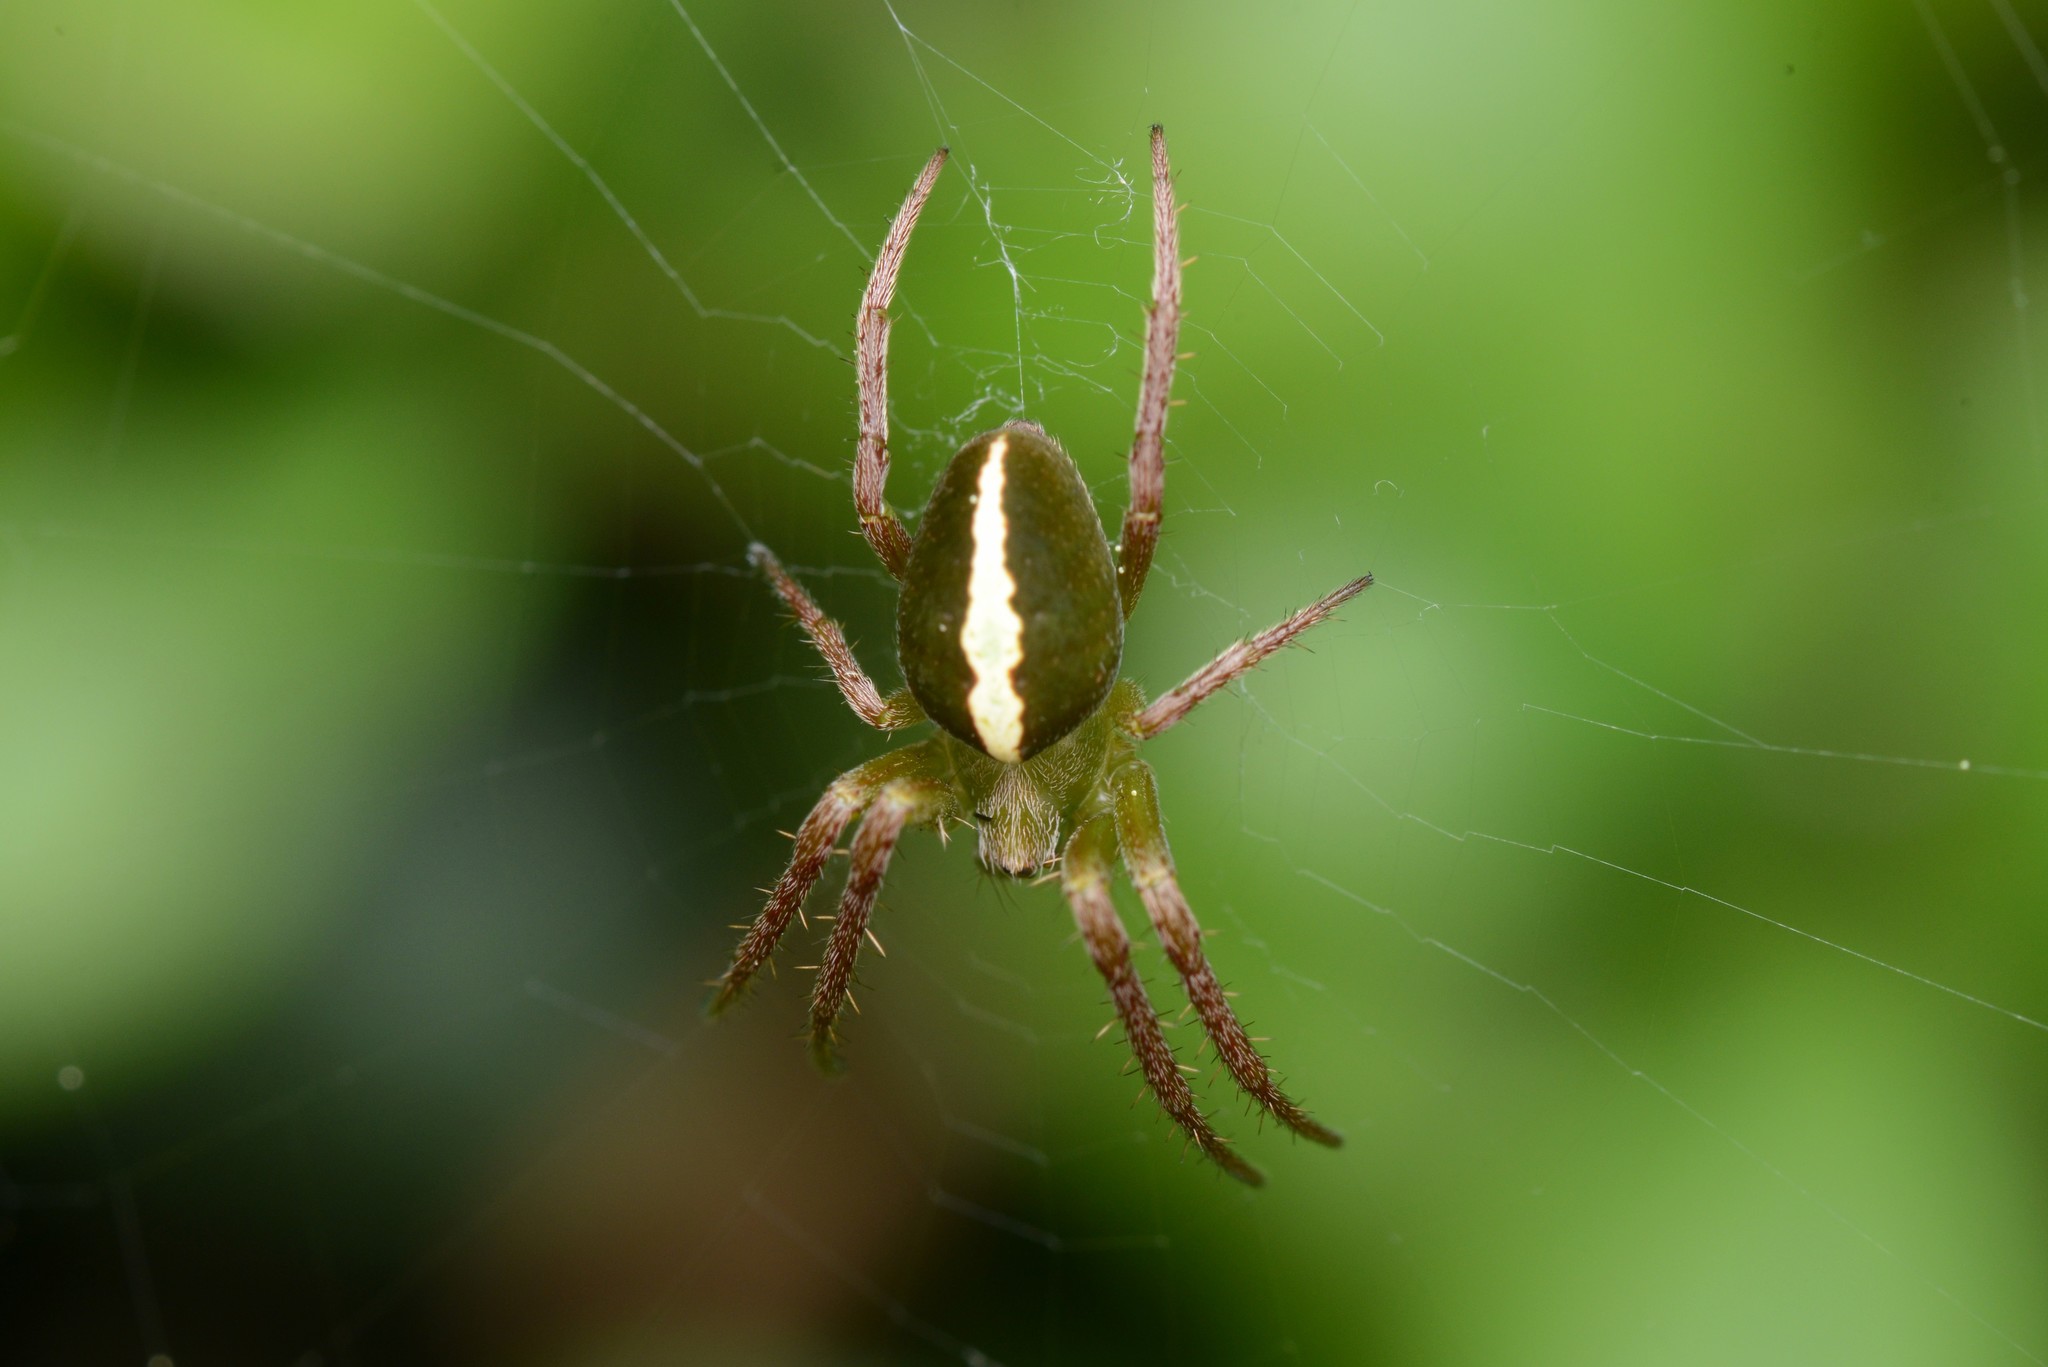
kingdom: Animalia
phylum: Arthropoda
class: Arachnida
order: Araneae
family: Araneidae
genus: Colaranea
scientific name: Colaranea brunnea
